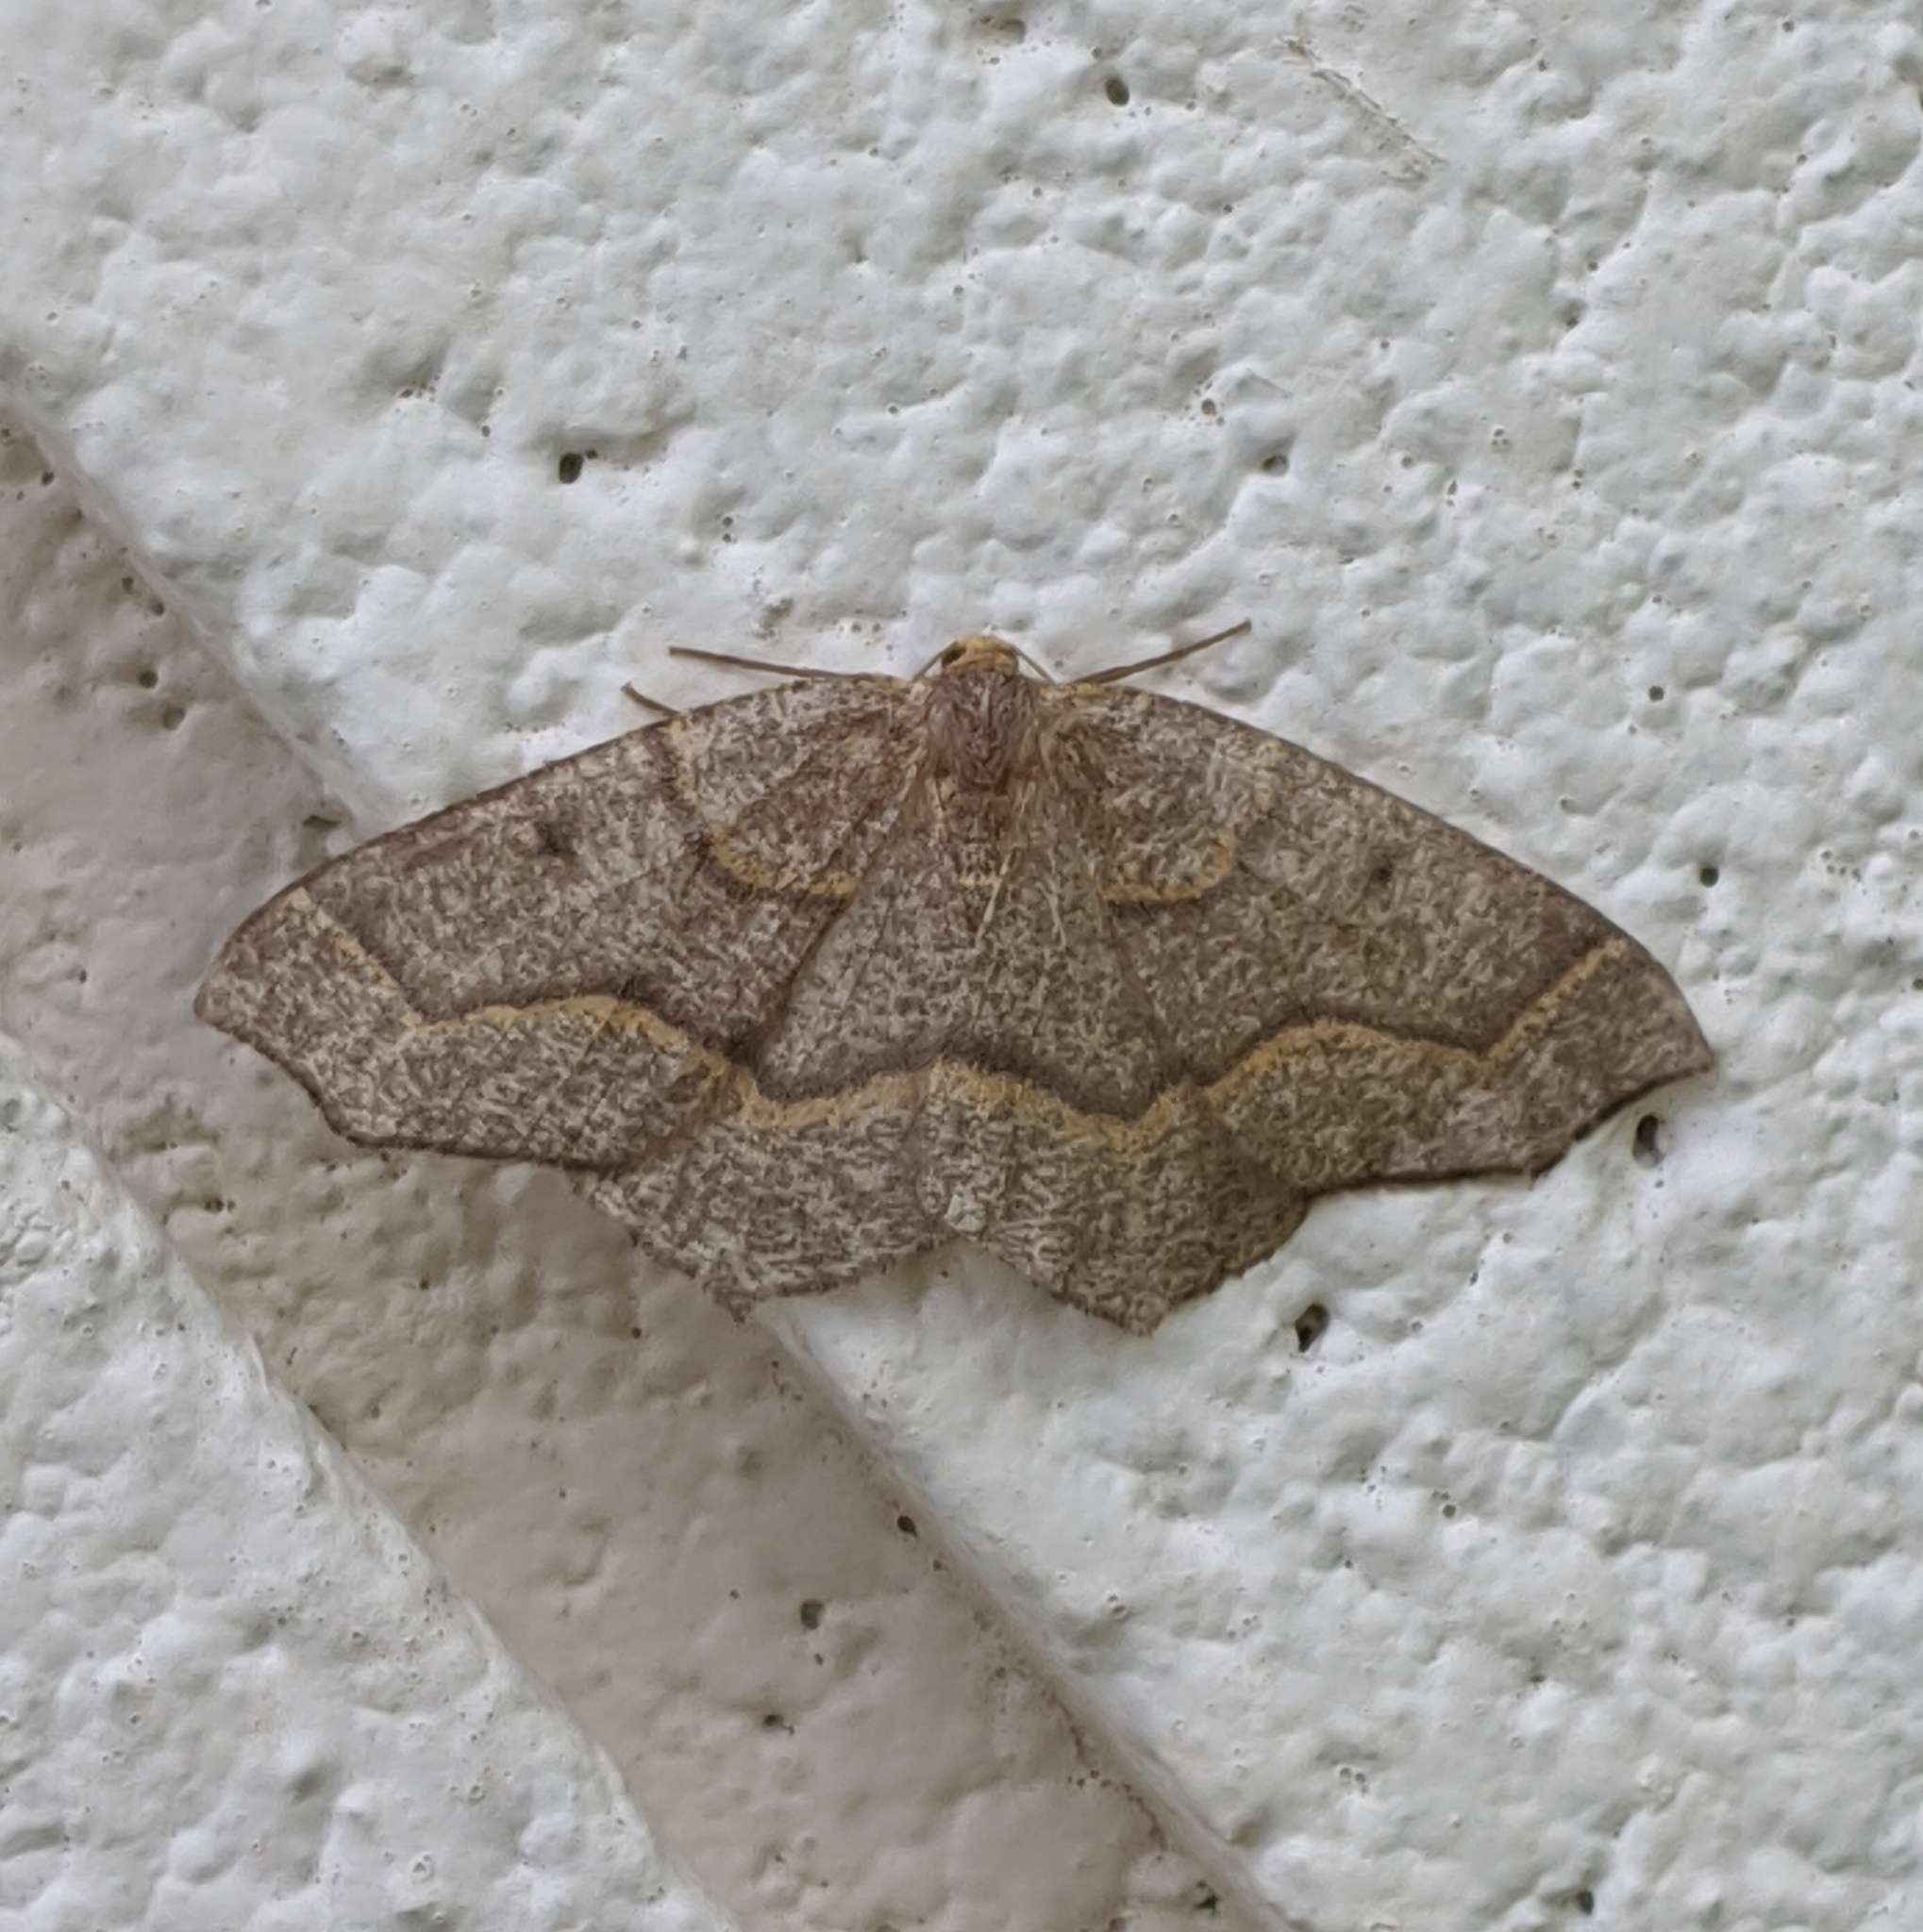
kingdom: Animalia
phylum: Arthropoda
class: Insecta
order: Lepidoptera
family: Geometridae
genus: Lambdina
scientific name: Lambdina fiscellaria
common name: Hemlock looper
